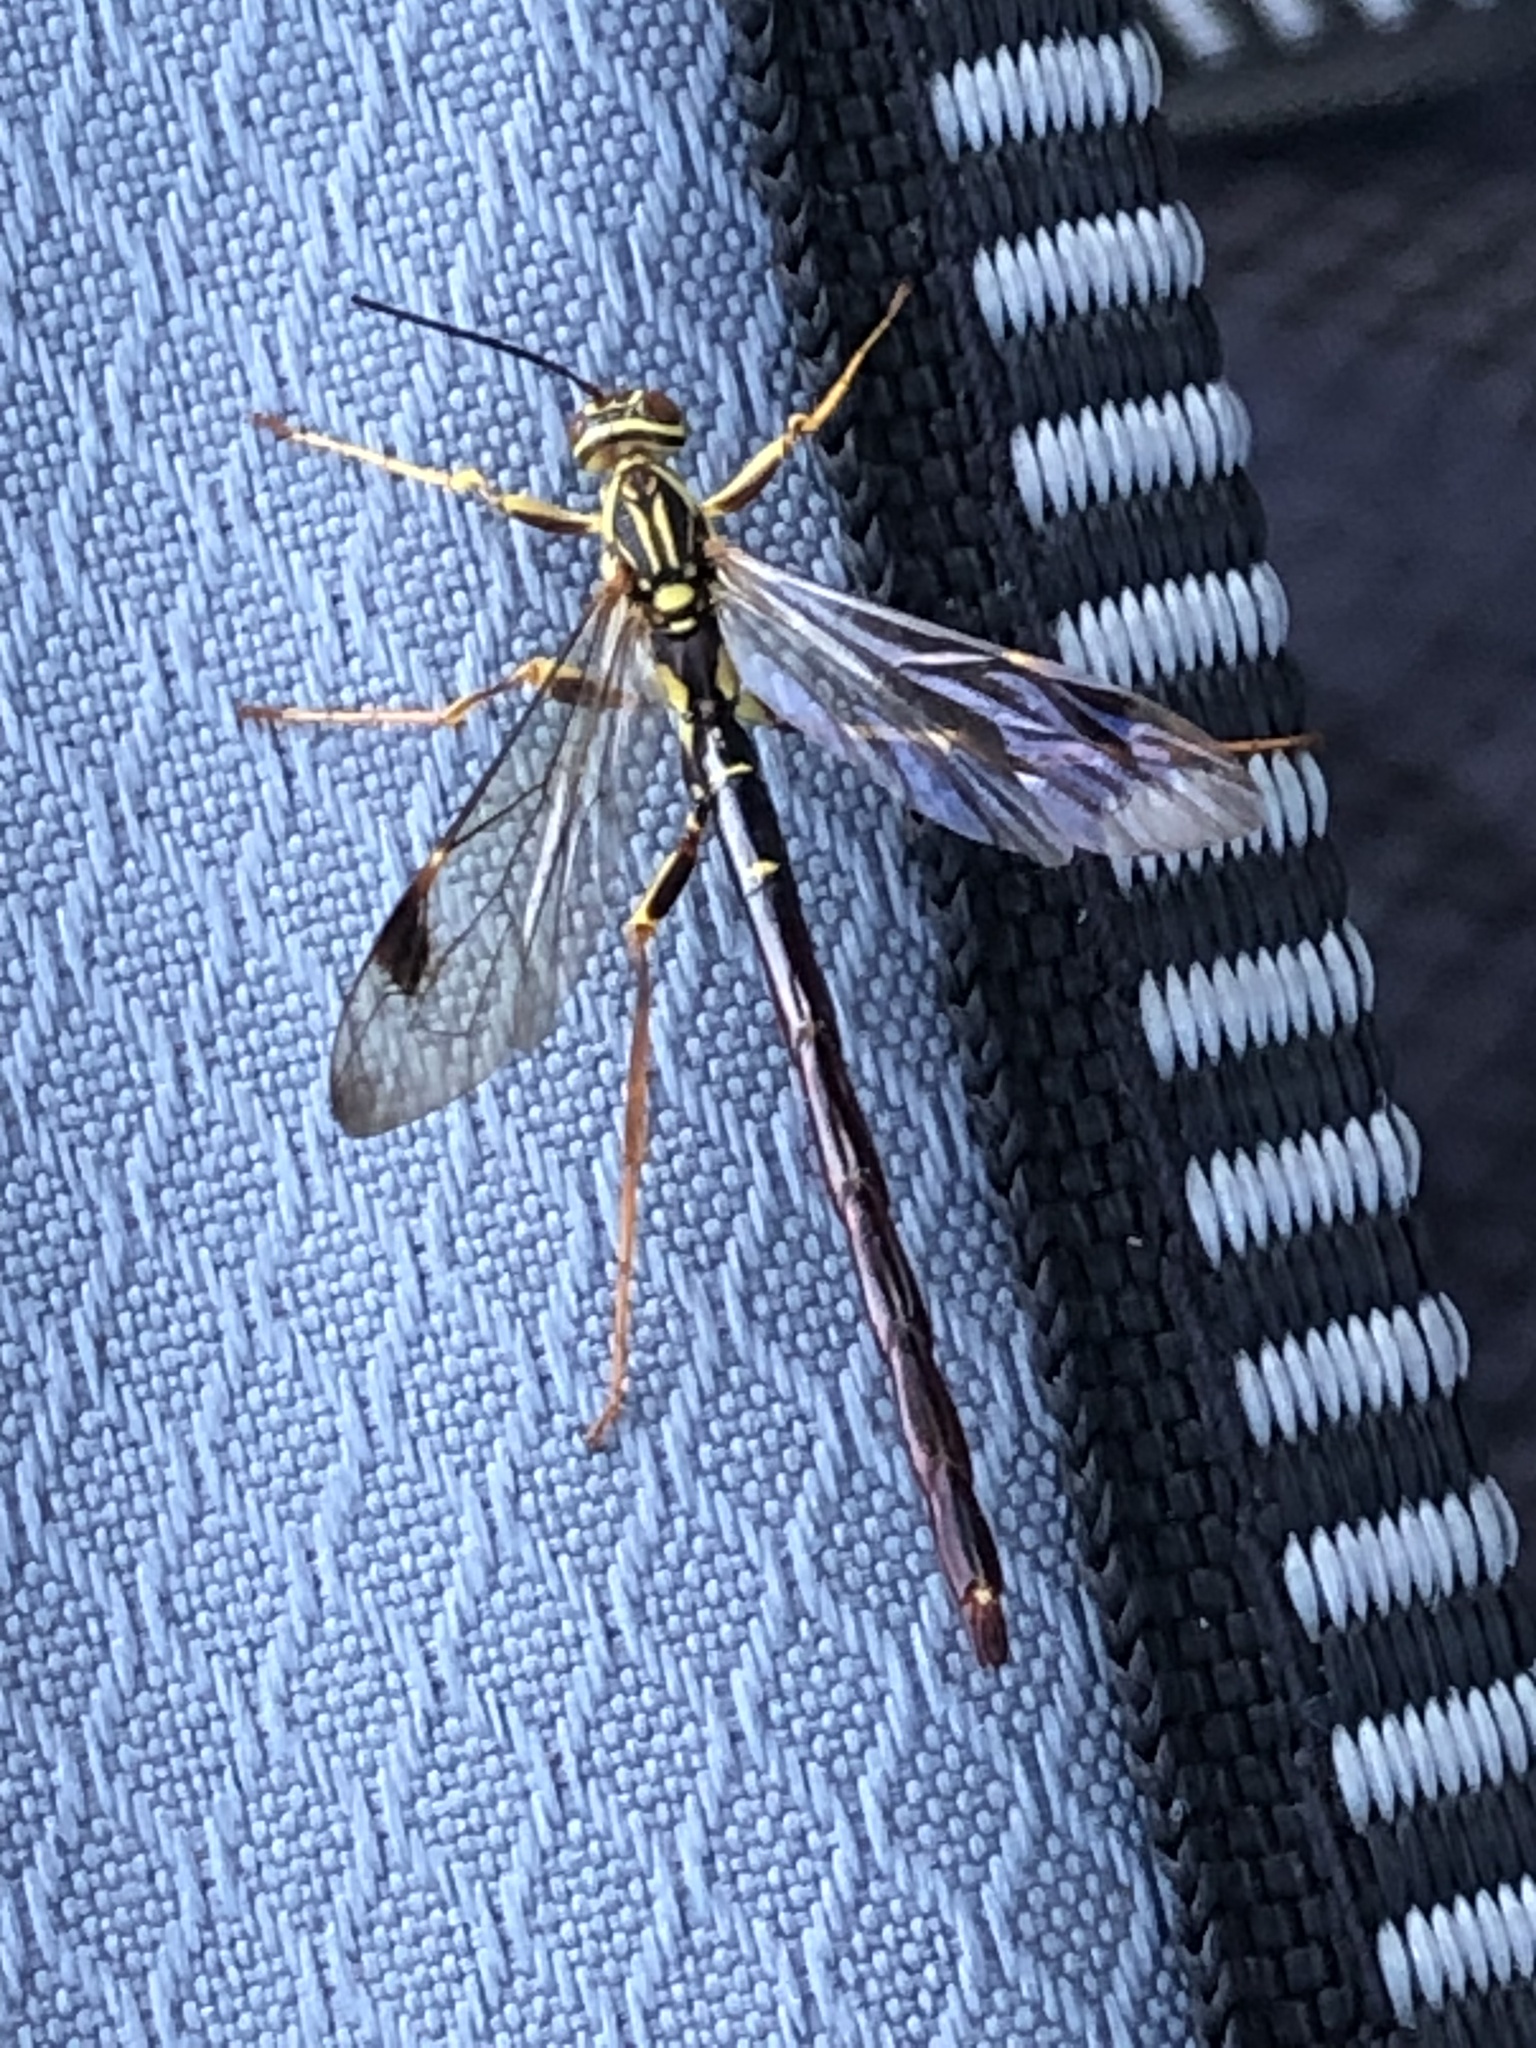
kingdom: Animalia
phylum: Arthropoda
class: Insecta
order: Hymenoptera
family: Ichneumonidae
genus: Megarhyssa
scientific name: Megarhyssa macrura
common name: Long-tailed giant ichneumonid wasp
